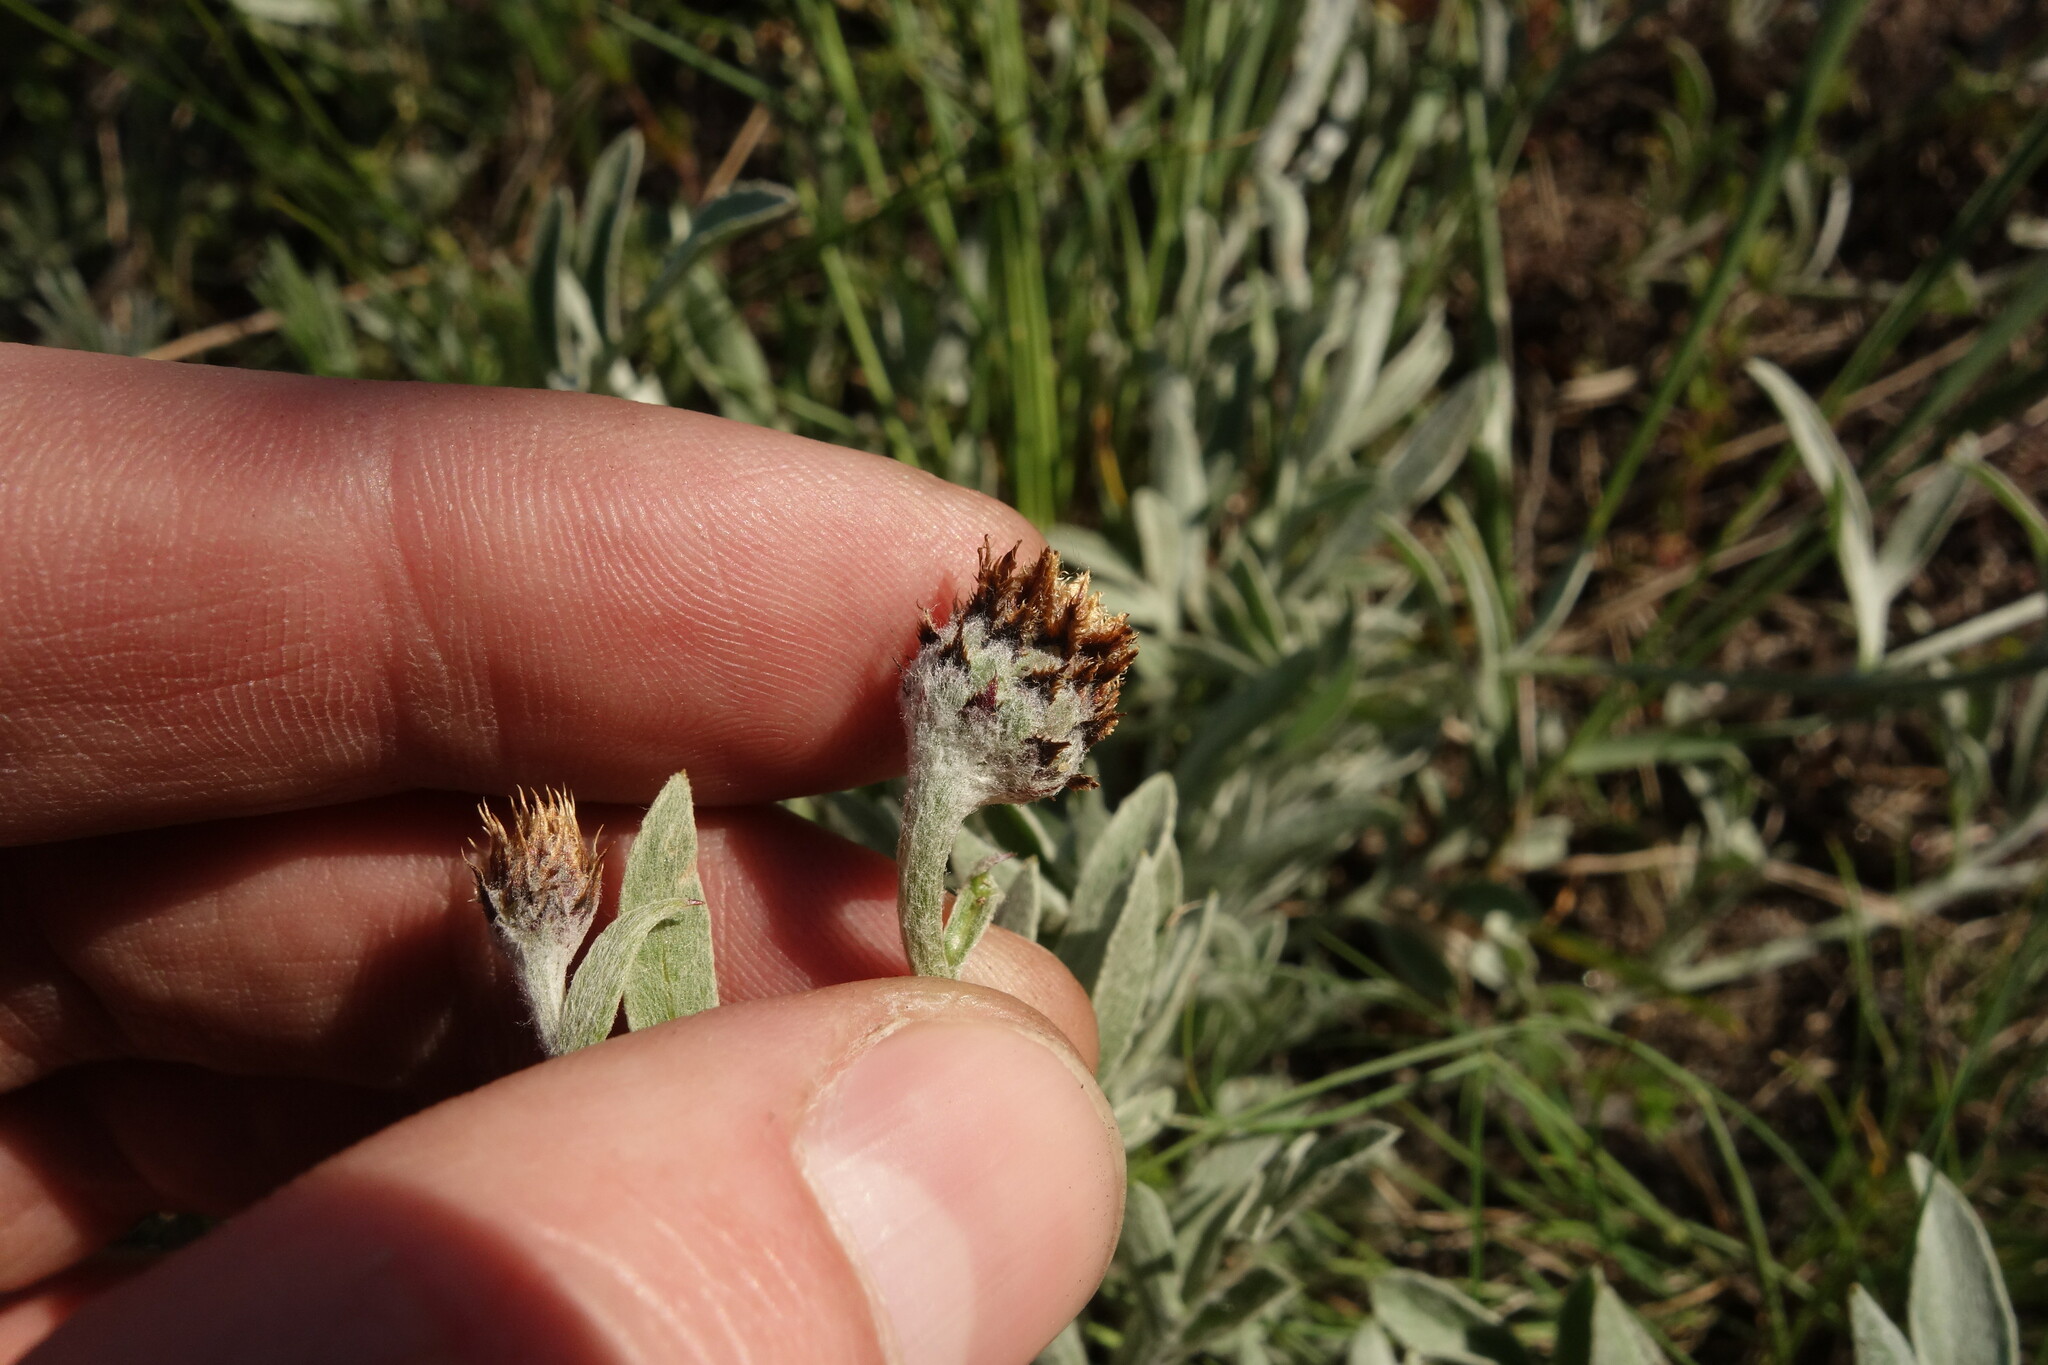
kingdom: Plantae
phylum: Tracheophyta
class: Magnoliopsida
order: Asterales
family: Asteraceae
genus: Psephellus
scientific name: Psephellus marschallianus
